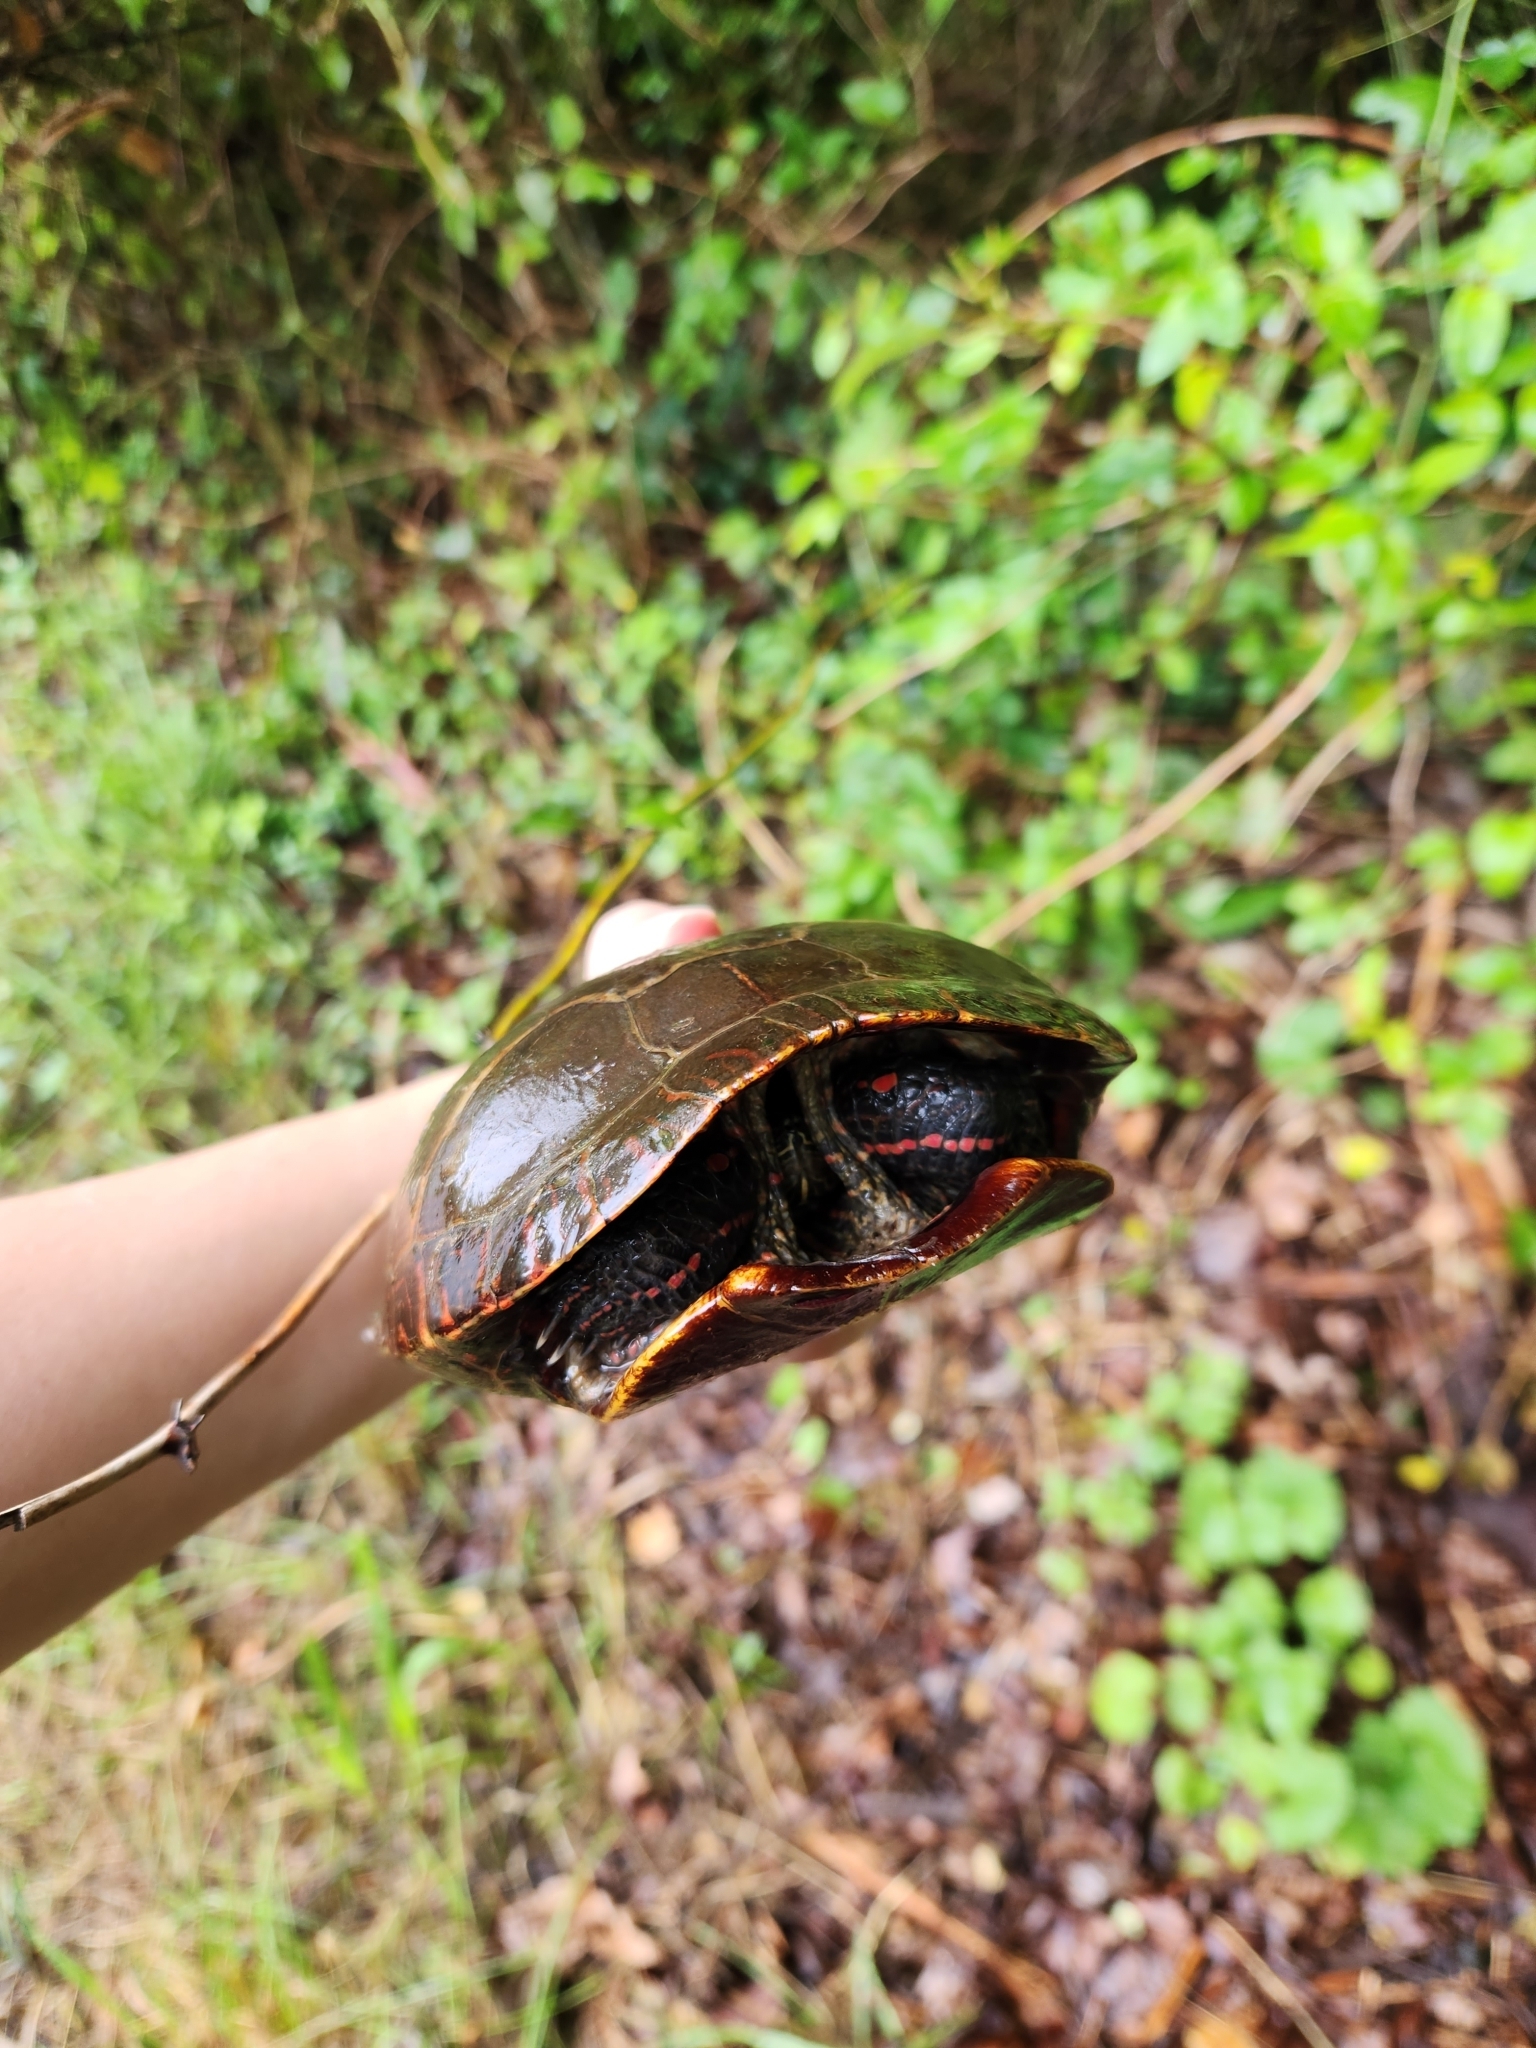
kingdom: Animalia
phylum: Chordata
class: Testudines
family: Emydidae
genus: Chrysemys
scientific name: Chrysemys picta
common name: Painted turtle
